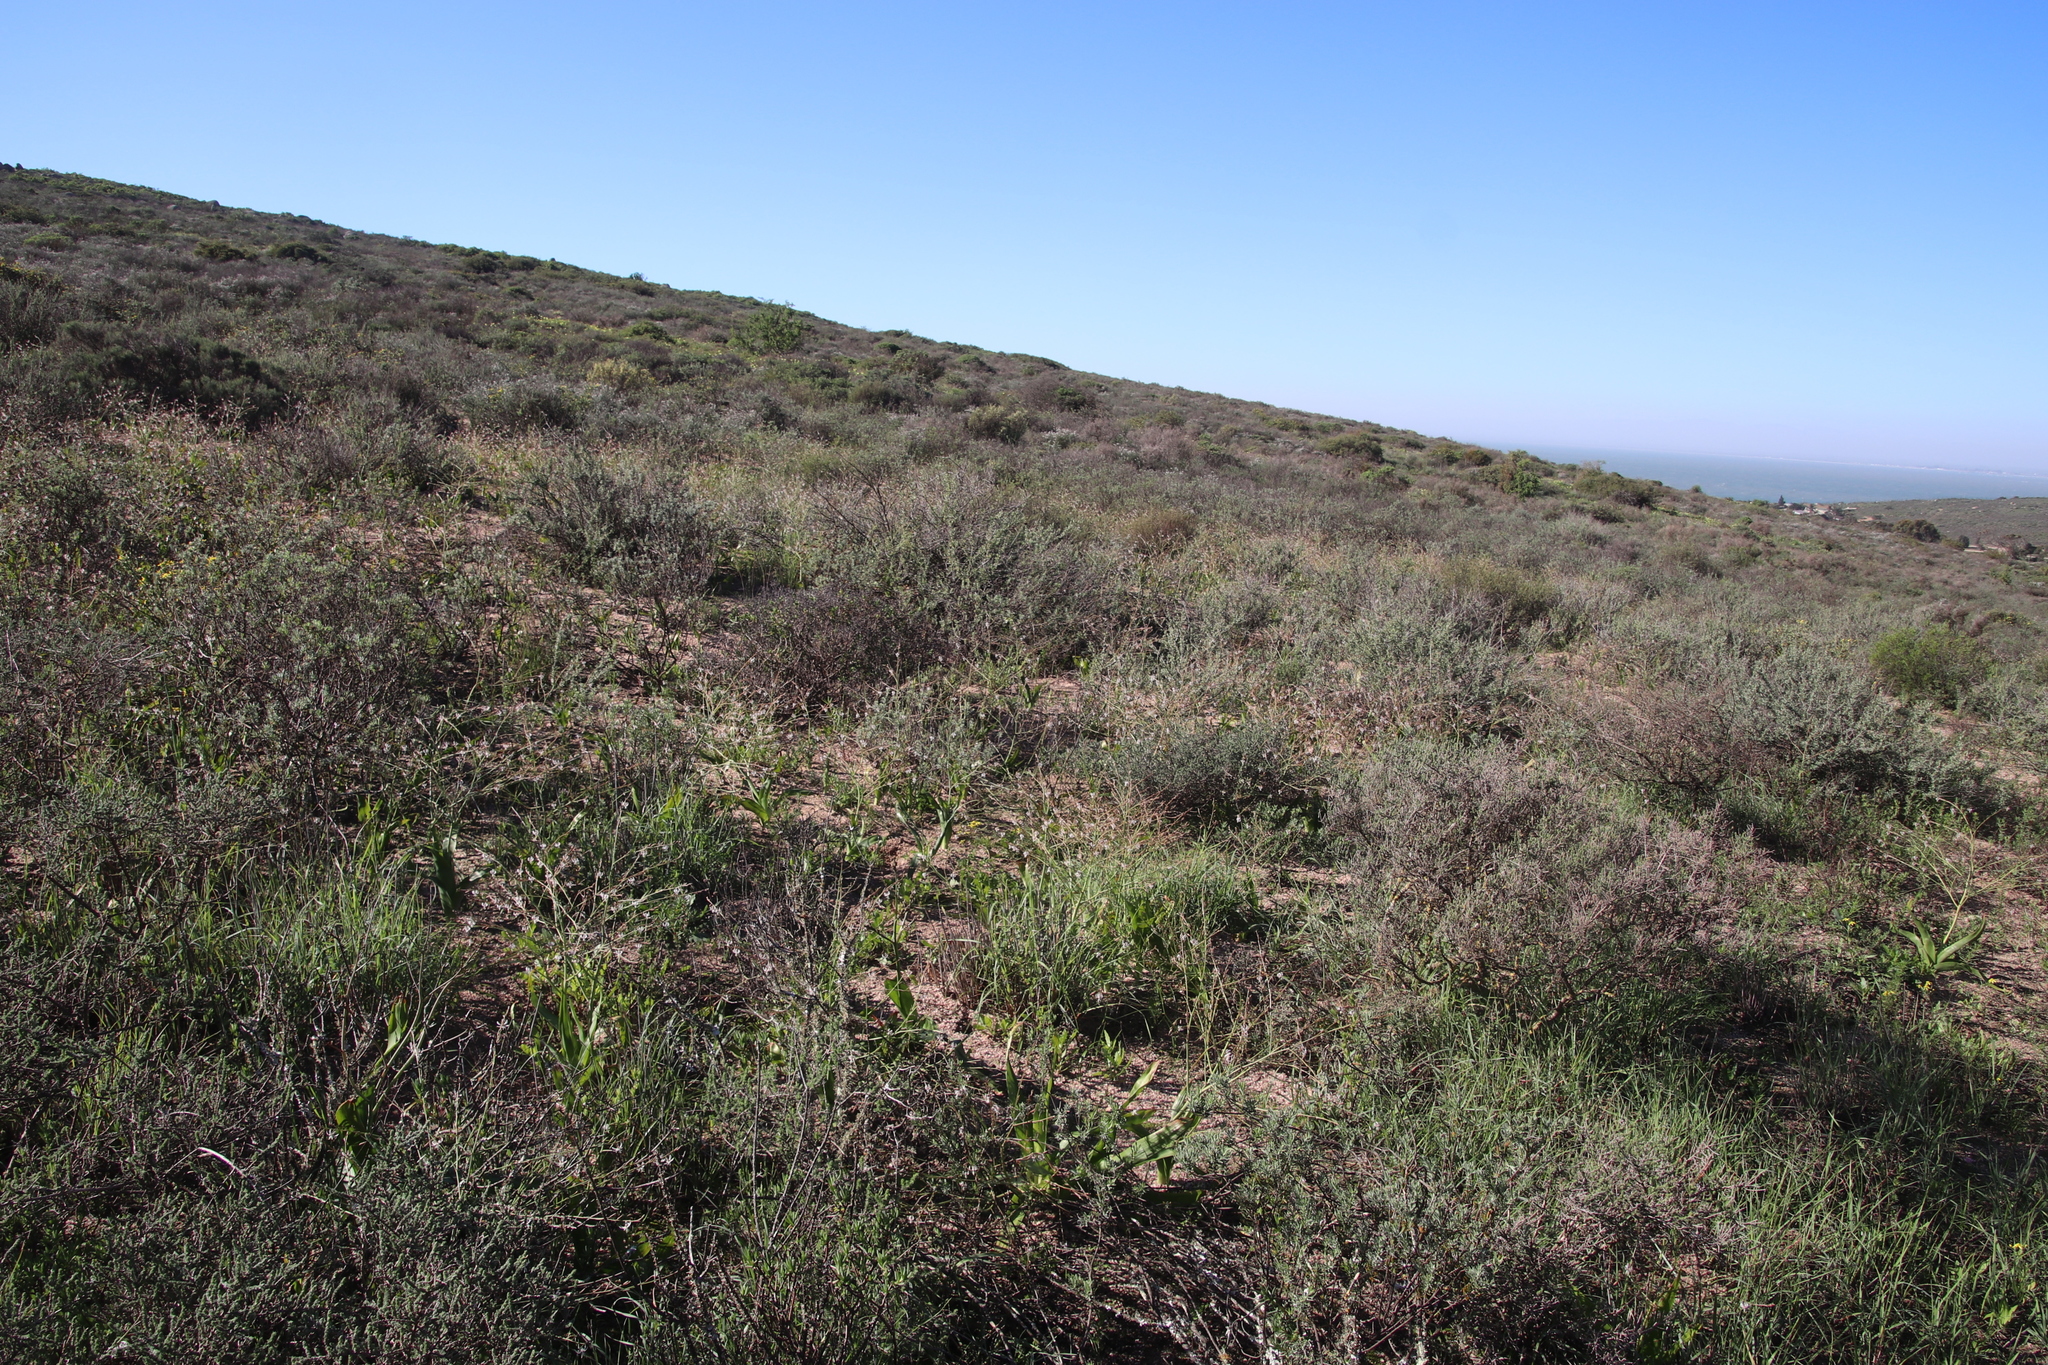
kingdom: Plantae
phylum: Tracheophyta
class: Liliopsida
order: Asparagales
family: Asphodelaceae
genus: Trachyandra
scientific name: Trachyandra muricata
